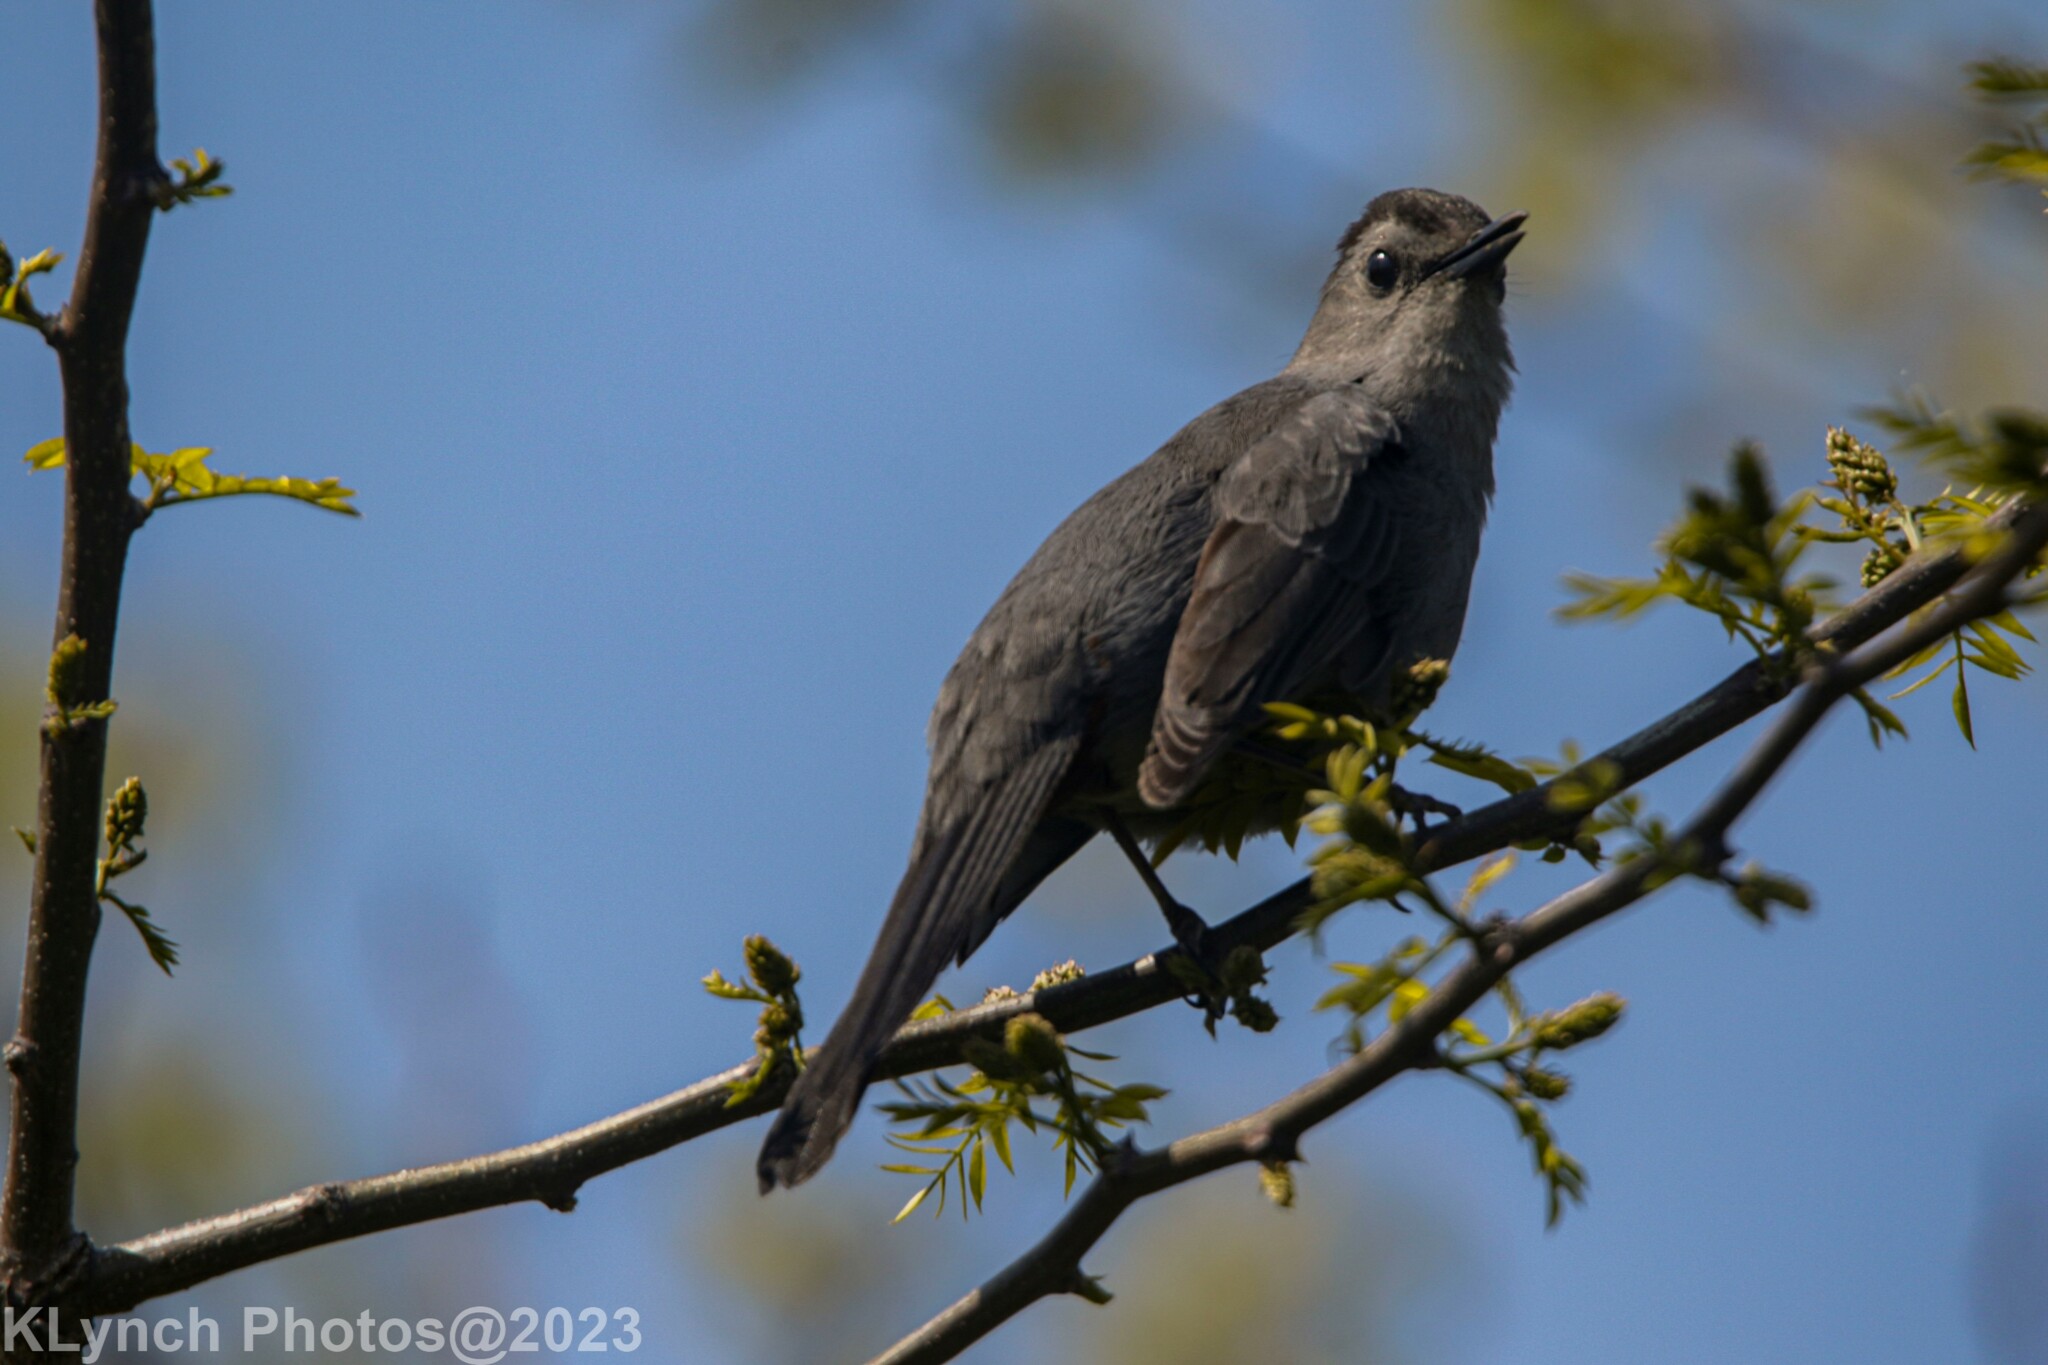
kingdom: Animalia
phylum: Chordata
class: Aves
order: Passeriformes
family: Mimidae
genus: Dumetella
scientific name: Dumetella carolinensis
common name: Gray catbird
